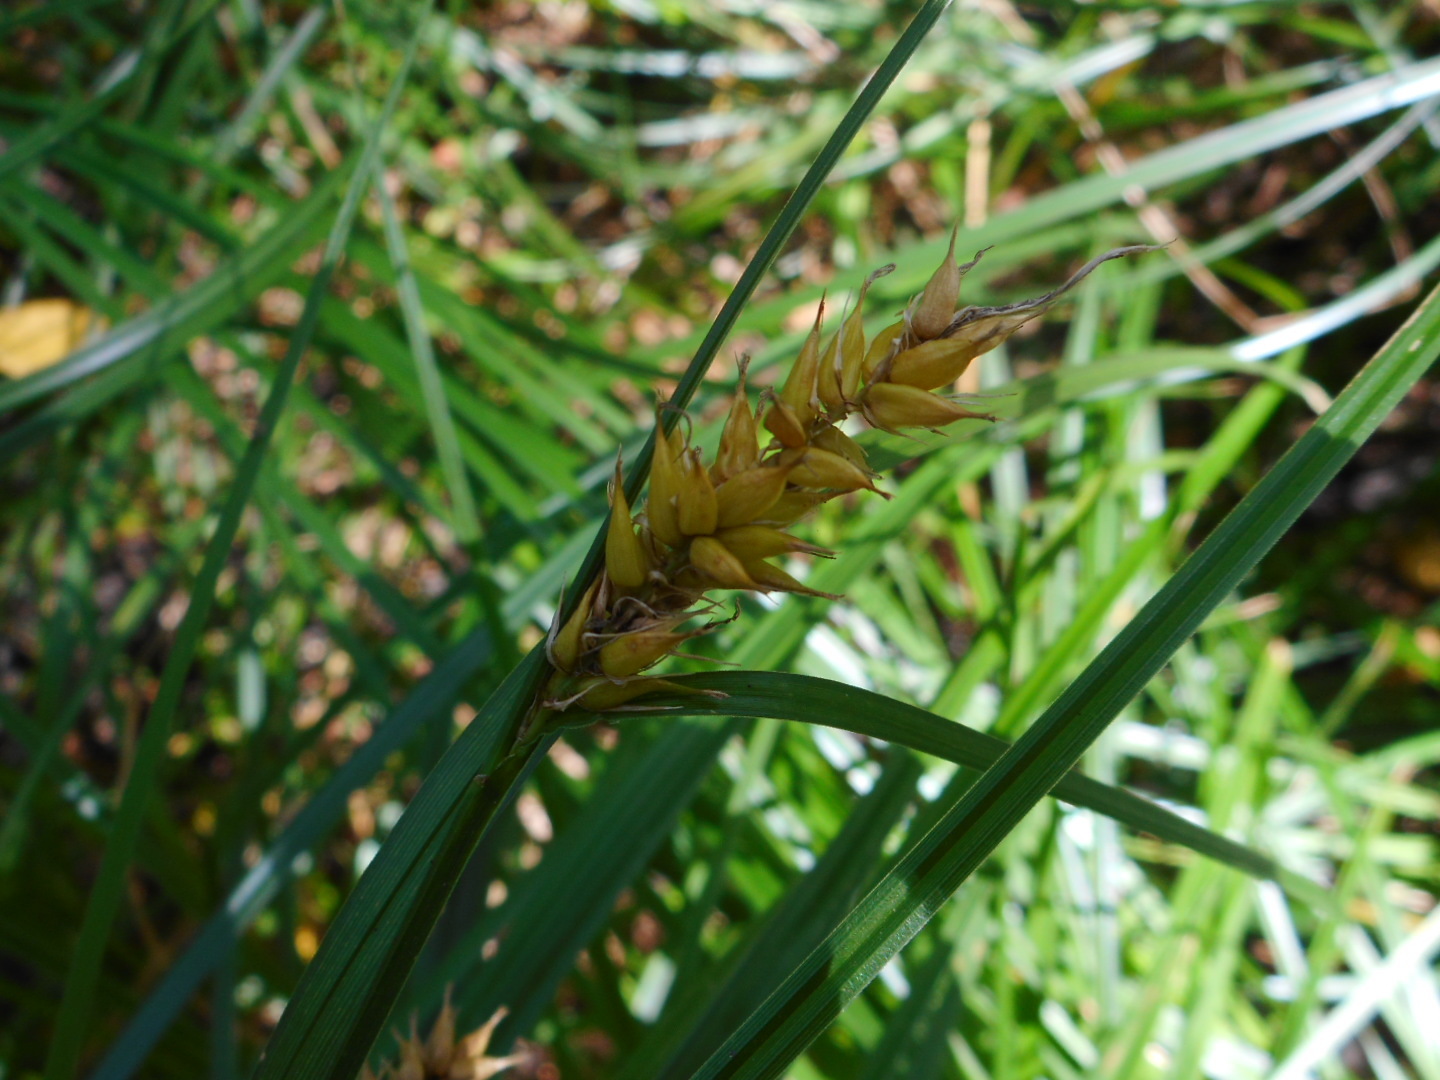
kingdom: Plantae
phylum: Tracheophyta
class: Liliopsida
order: Poales
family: Cyperaceae
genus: Carex
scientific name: Carex vesicaria
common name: Bladder-sedge
